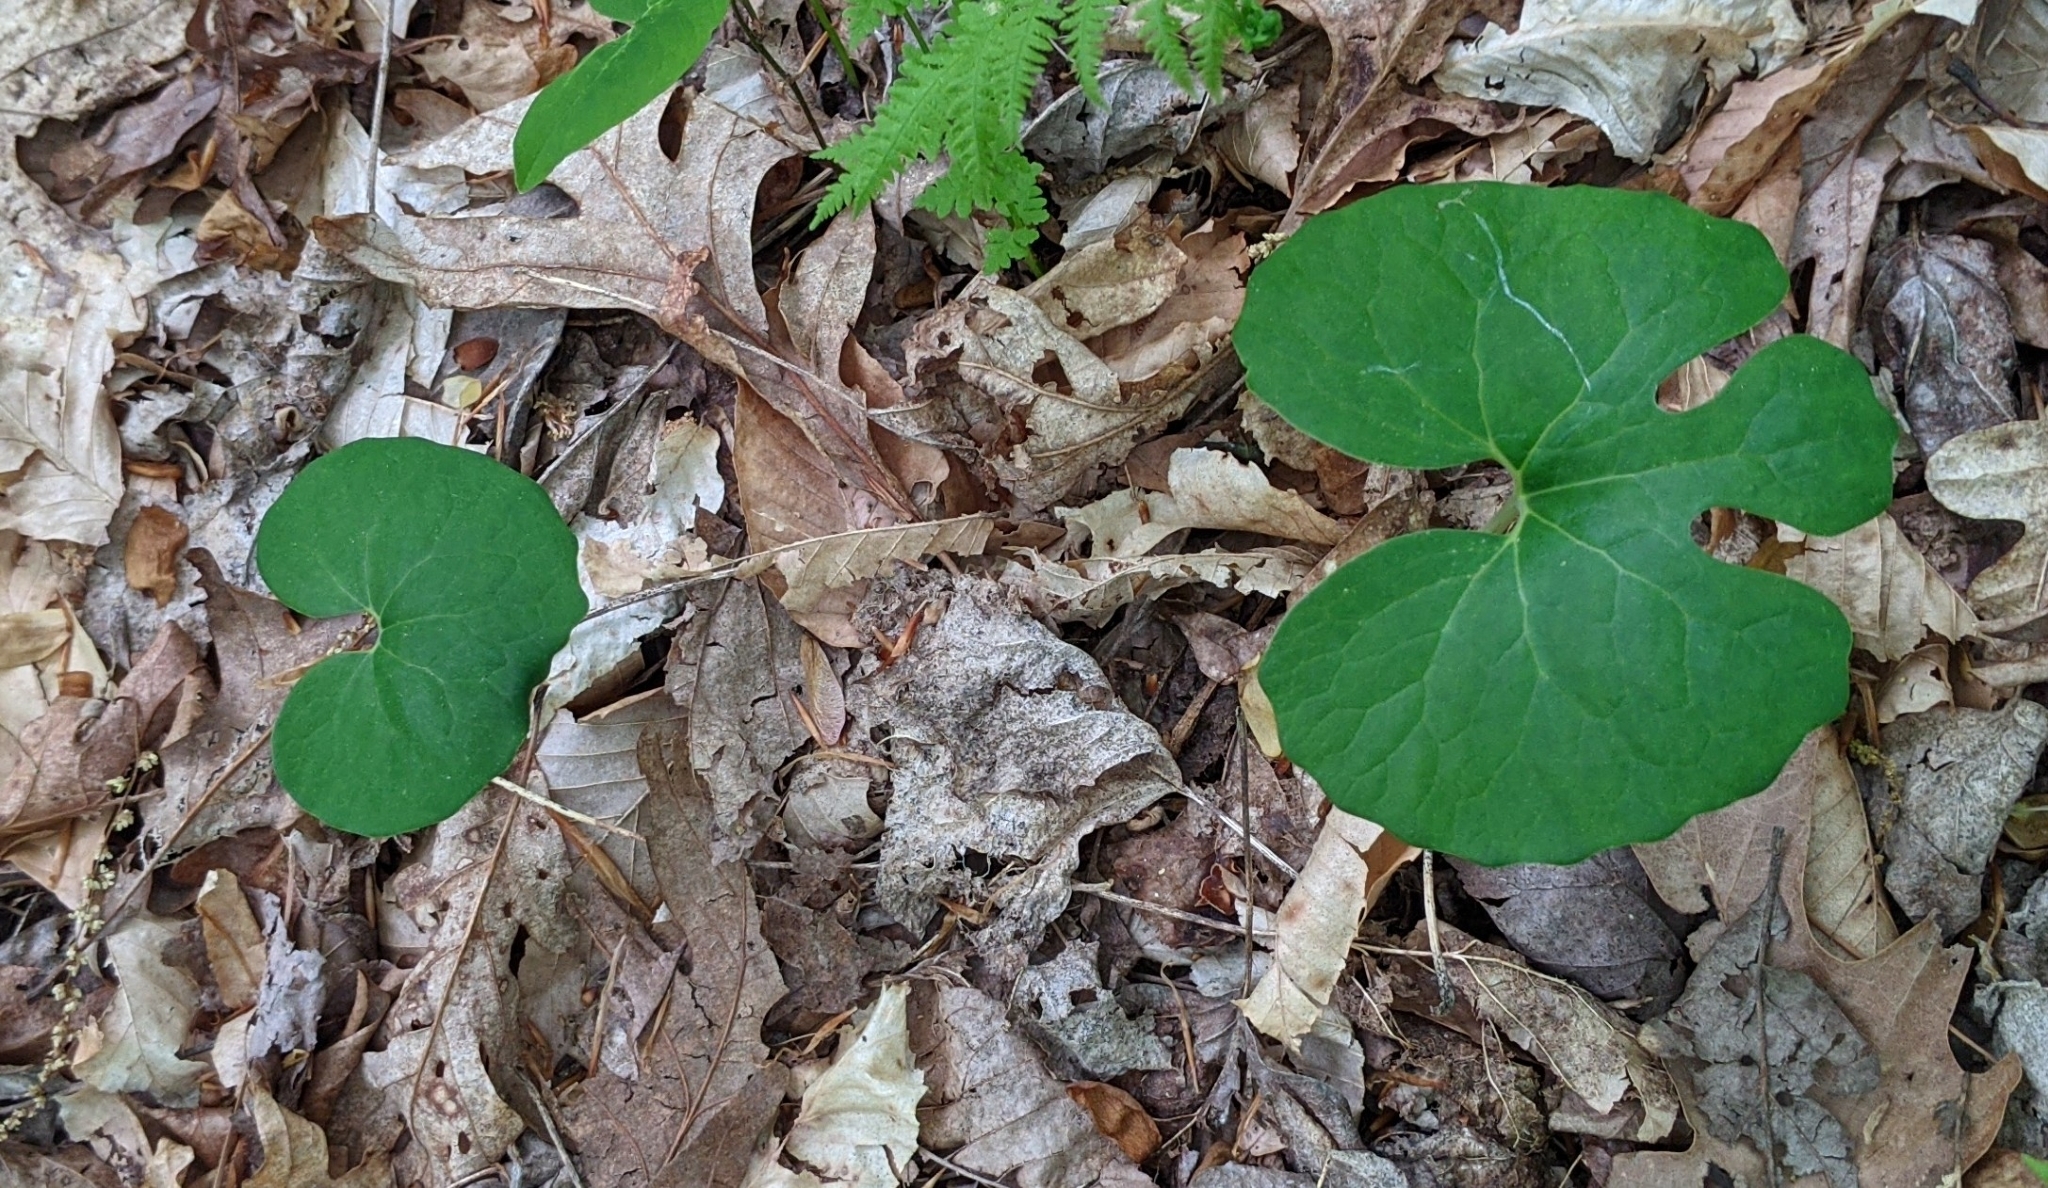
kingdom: Plantae
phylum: Tracheophyta
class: Magnoliopsida
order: Ranunculales
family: Papaveraceae
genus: Sanguinaria
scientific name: Sanguinaria canadensis
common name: Bloodroot
